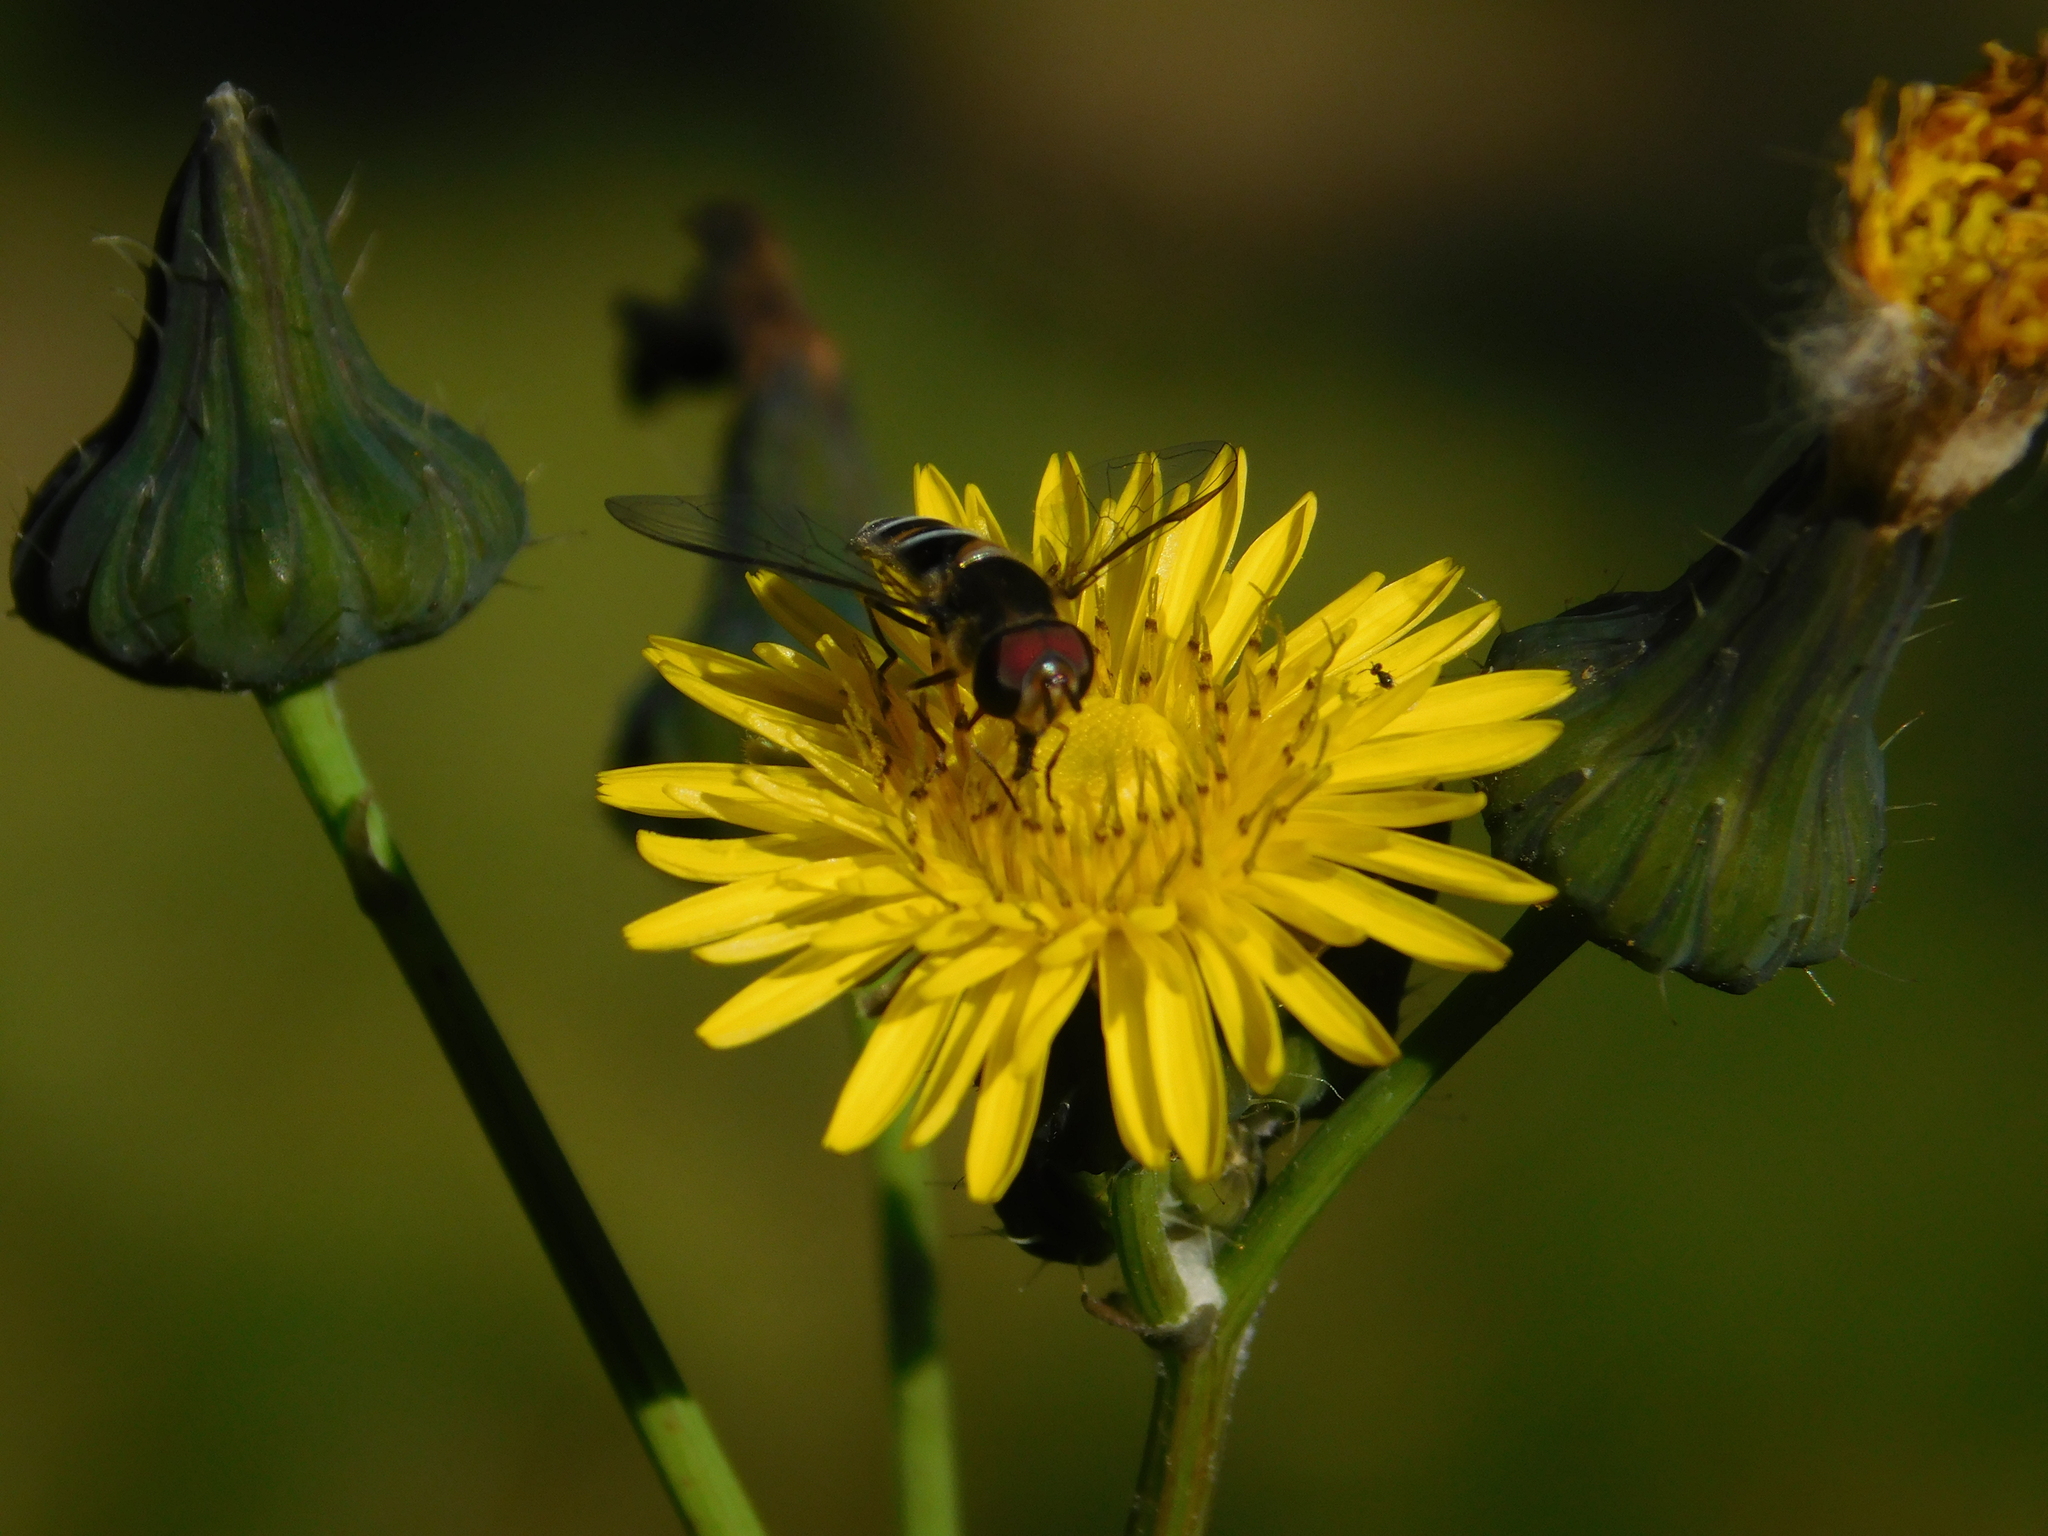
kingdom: Animalia
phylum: Arthropoda
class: Insecta
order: Diptera
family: Syrphidae
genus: Pseudoscaeva
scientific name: Pseudoscaeva meridionalis
